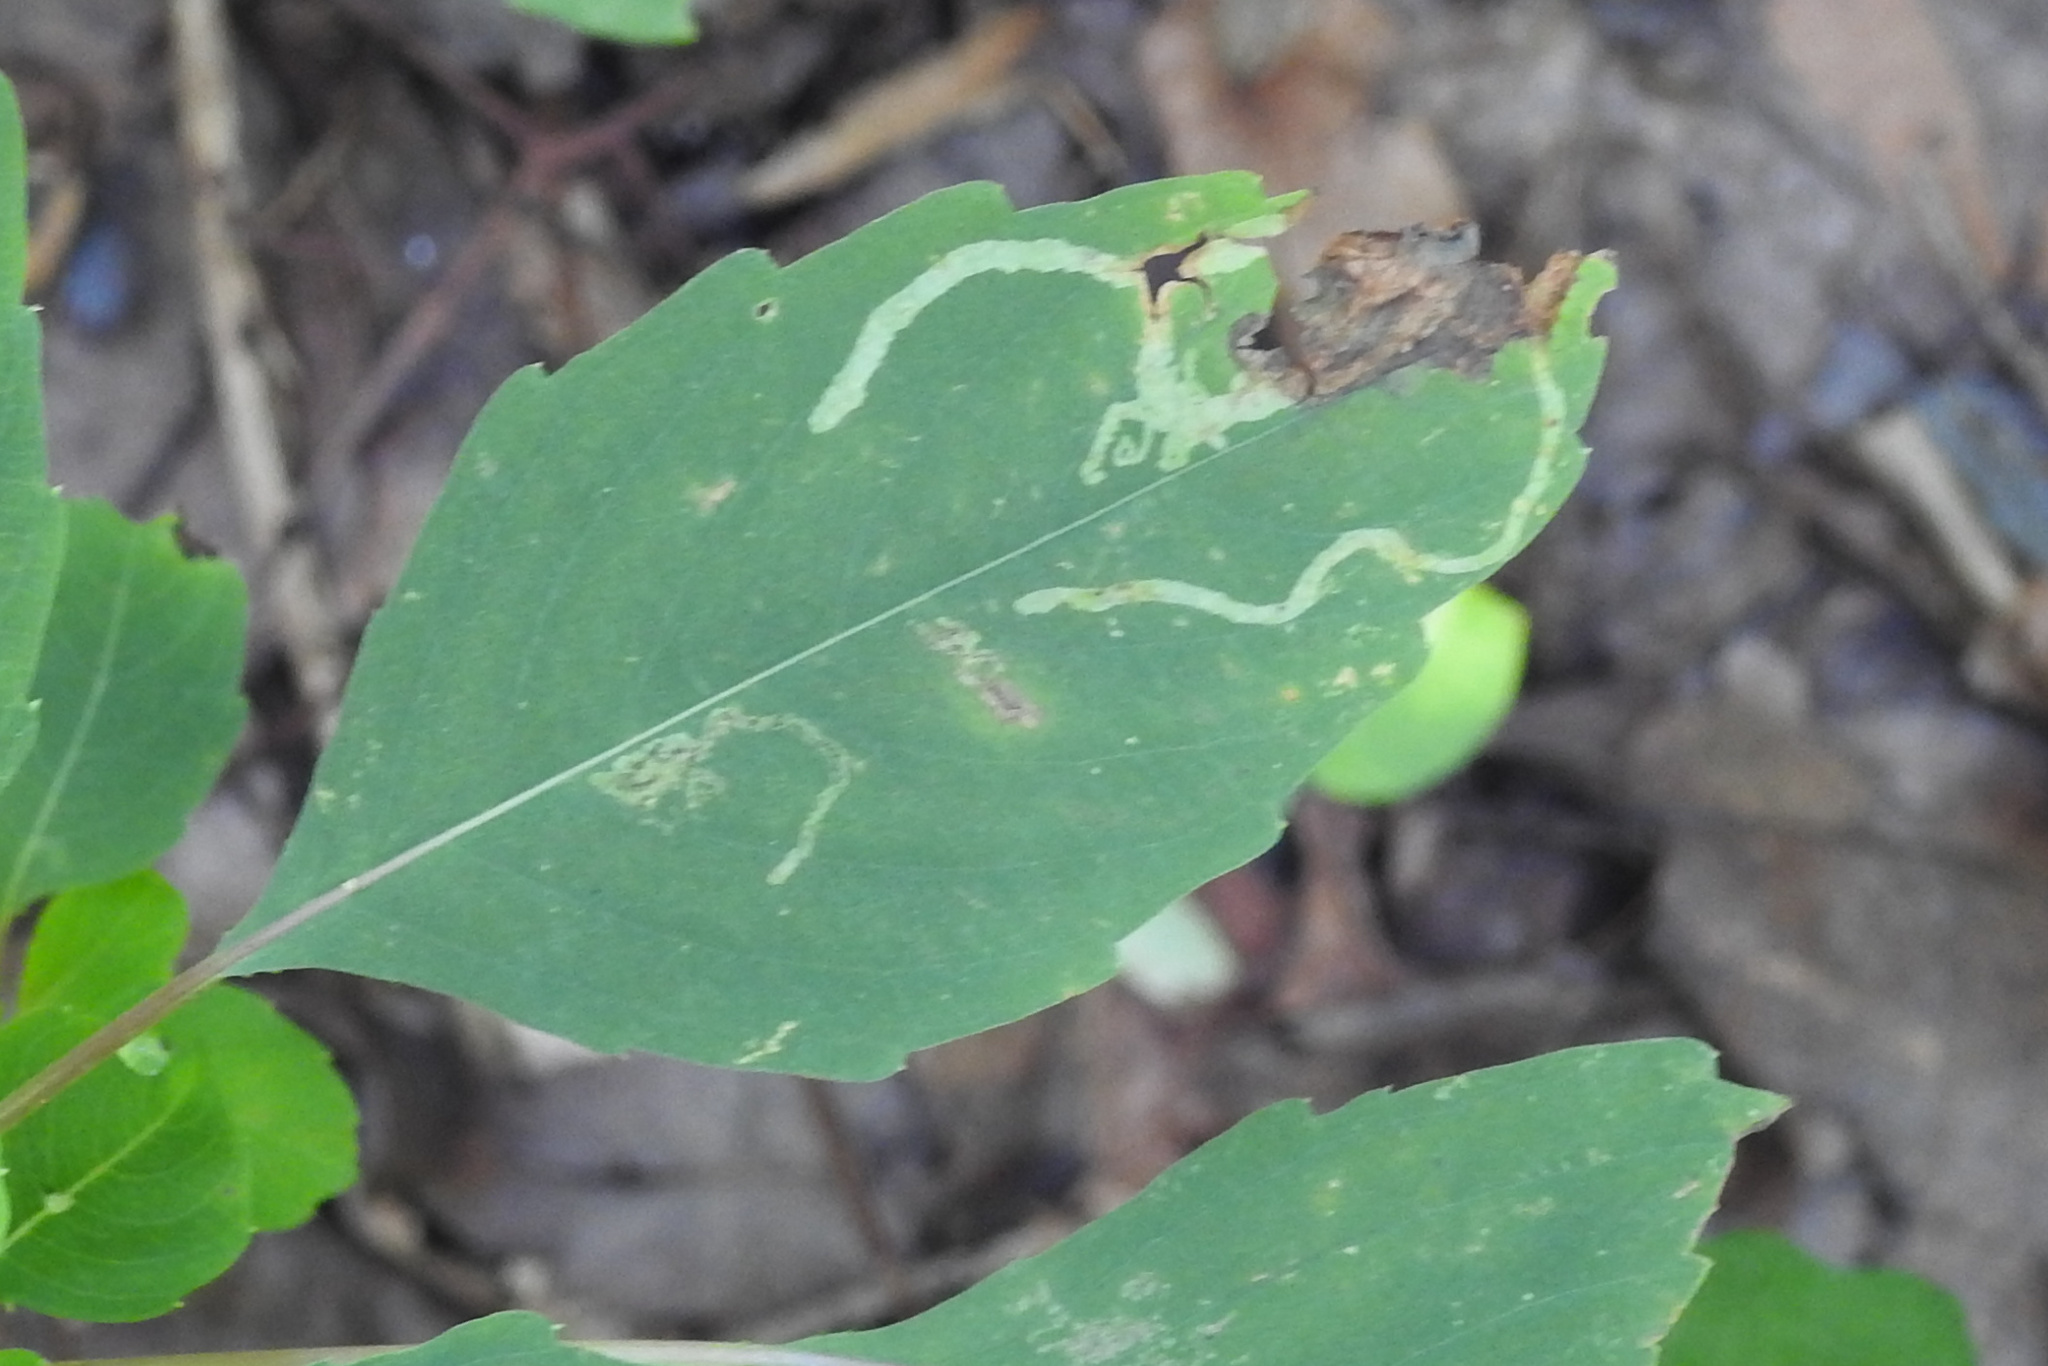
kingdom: Animalia
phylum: Arthropoda
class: Insecta
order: Diptera
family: Agromyzidae
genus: Phytoliriomyza
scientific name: Phytoliriomyza melampyga
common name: Jewelweed leaf-miner fly
